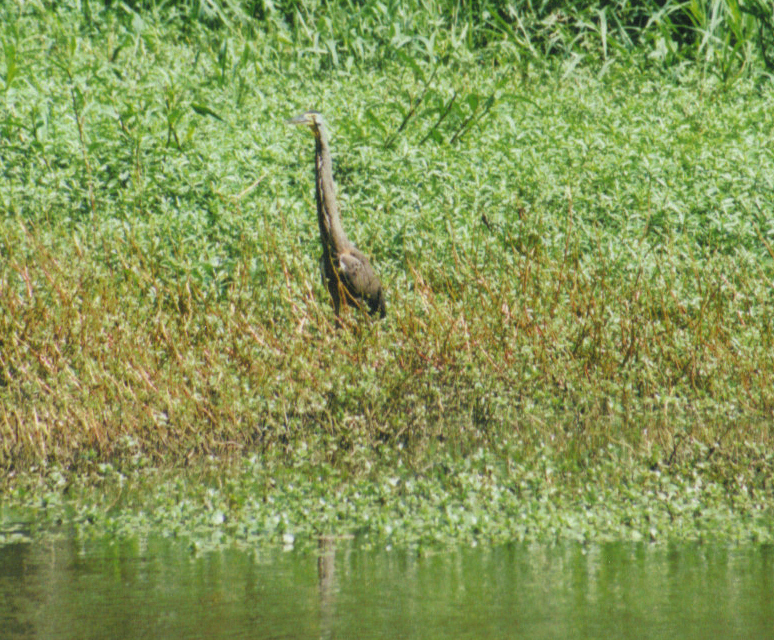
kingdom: Animalia
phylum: Chordata
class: Aves
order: Pelecaniformes
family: Ardeidae
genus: Tigrisoma
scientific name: Tigrisoma mexicanum
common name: Bare-throated tiger-heron
